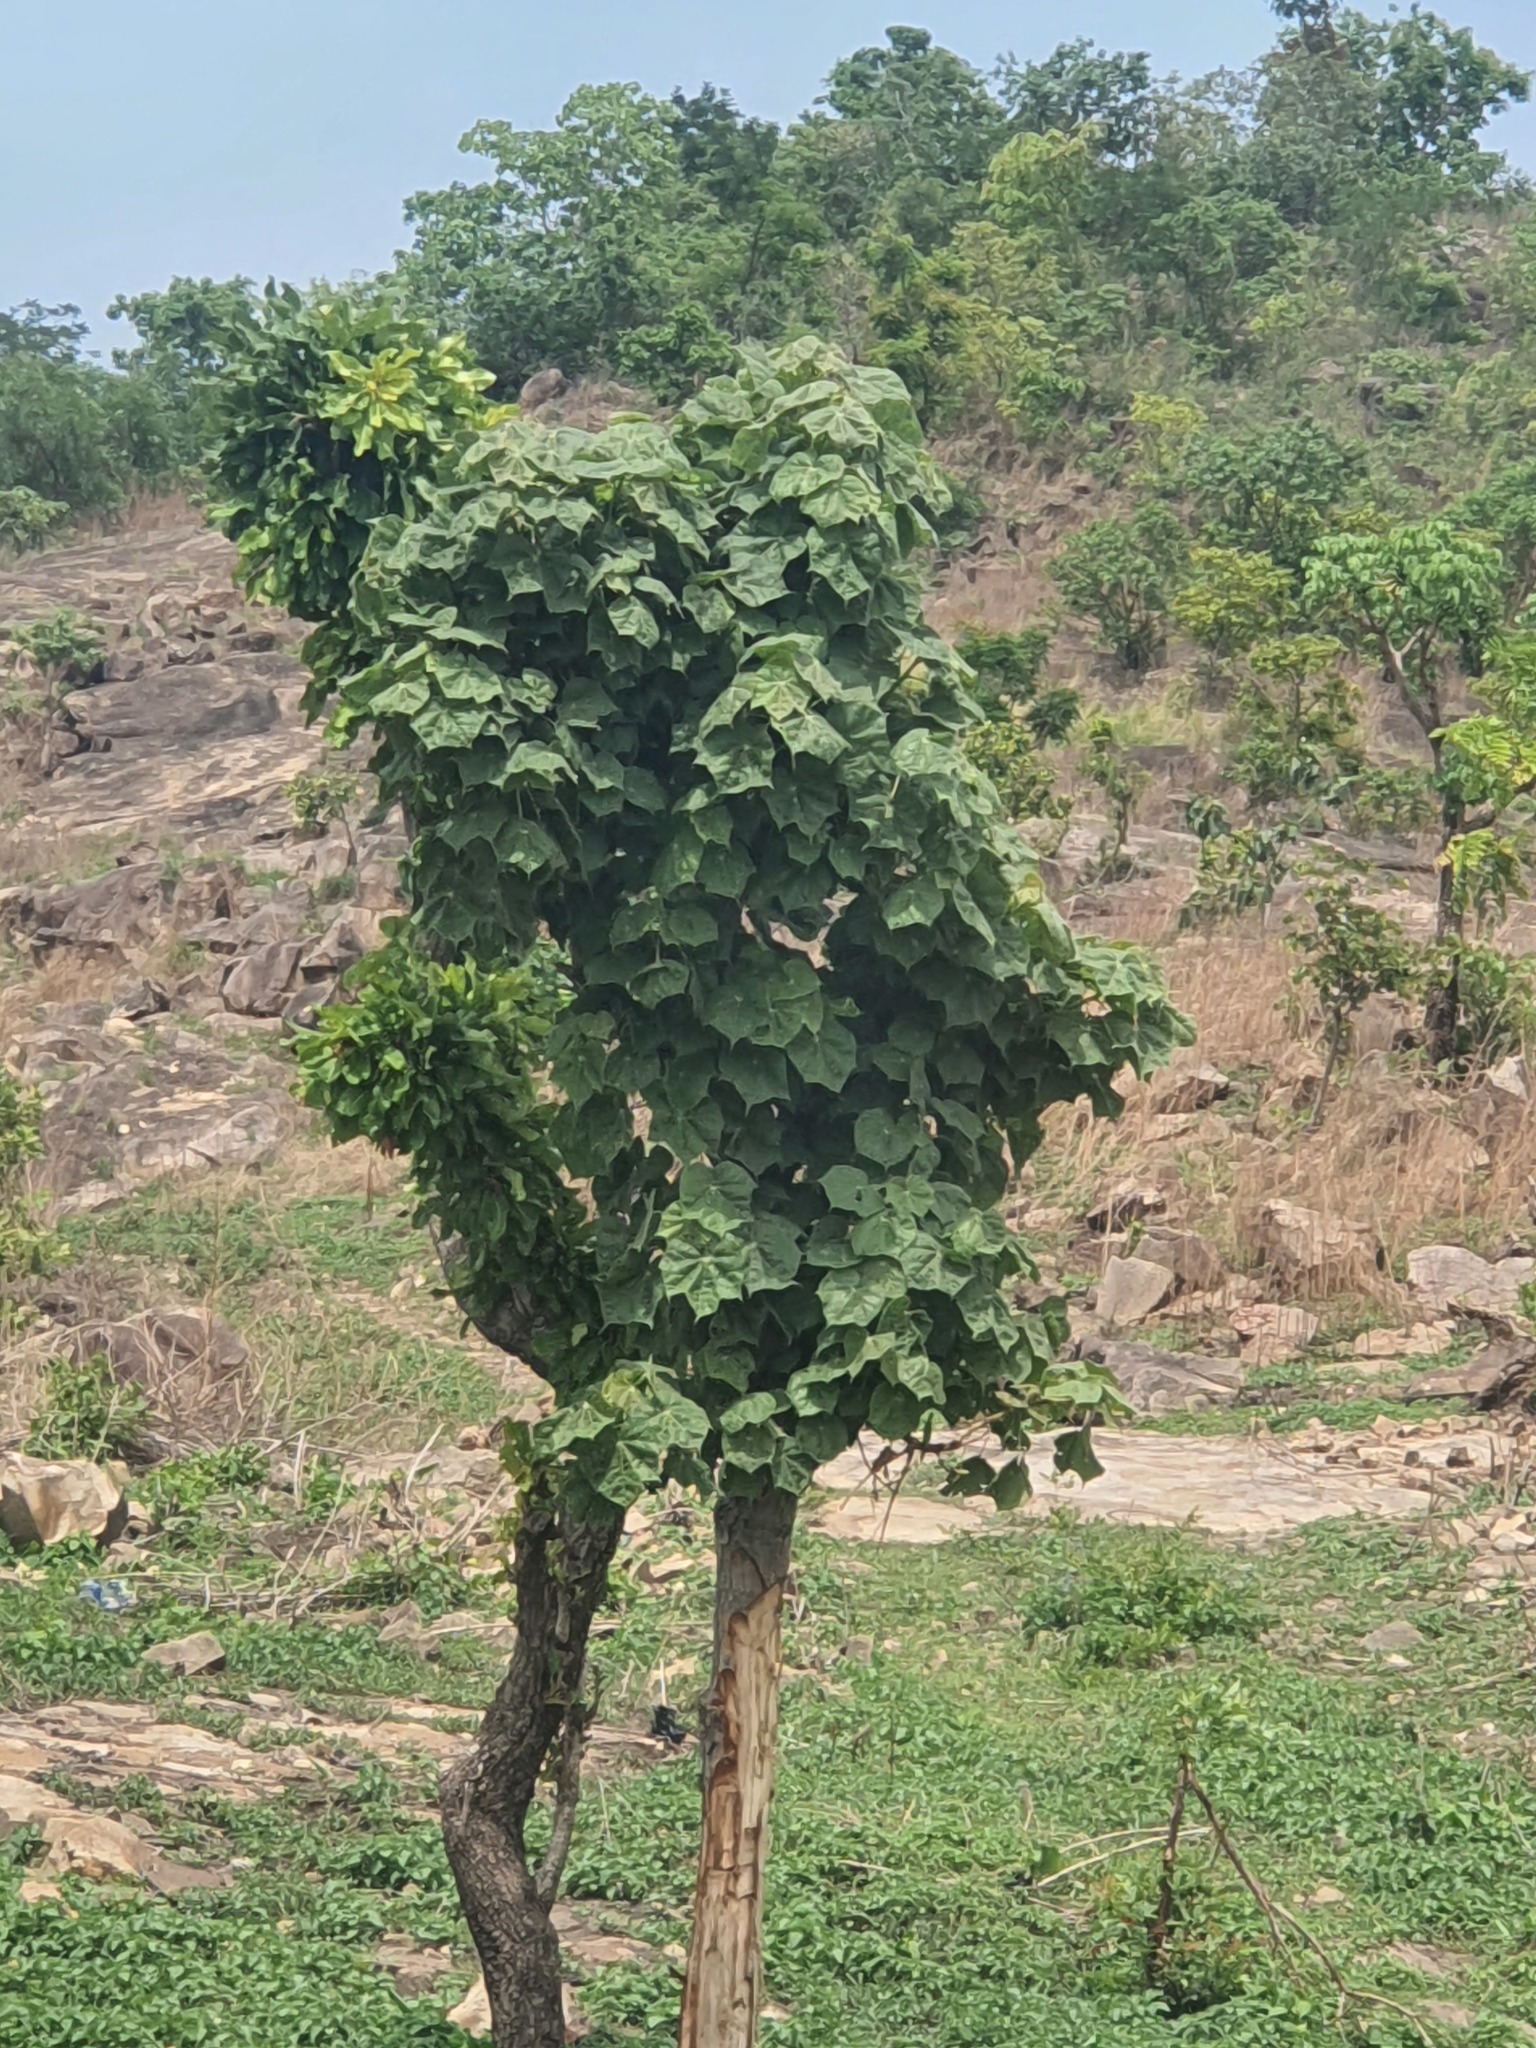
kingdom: Plantae
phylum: Tracheophyta
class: Magnoliopsida
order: Malpighiales
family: Euphorbiaceae
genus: Jatropha
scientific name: Jatropha curcas
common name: Barbados nut
